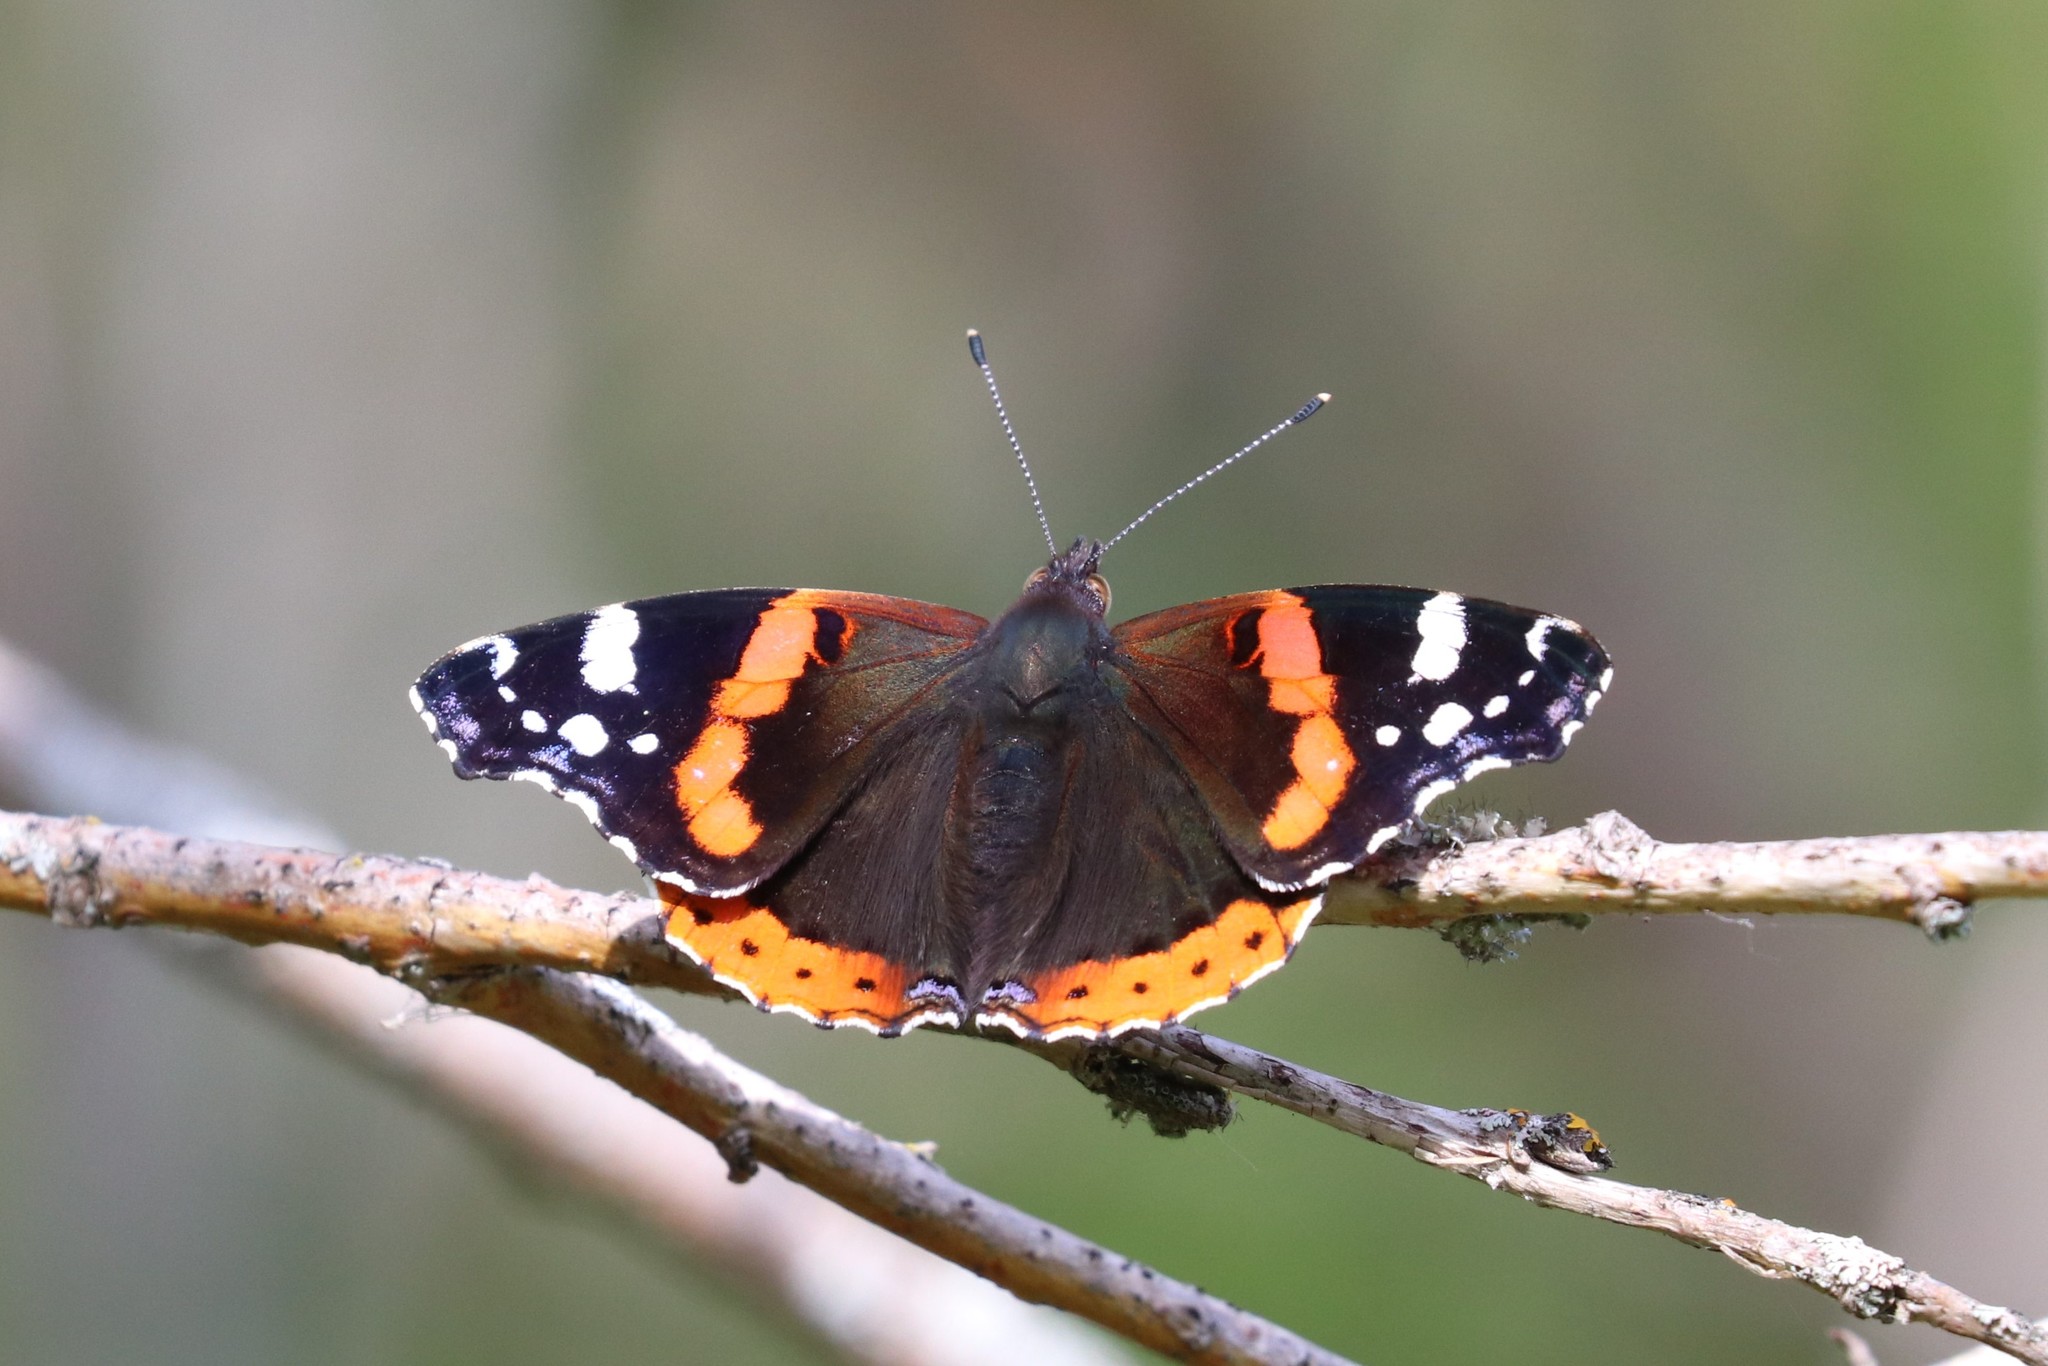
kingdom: Animalia
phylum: Arthropoda
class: Insecta
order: Lepidoptera
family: Nymphalidae
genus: Vanessa
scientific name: Vanessa atalanta
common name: Red admiral
